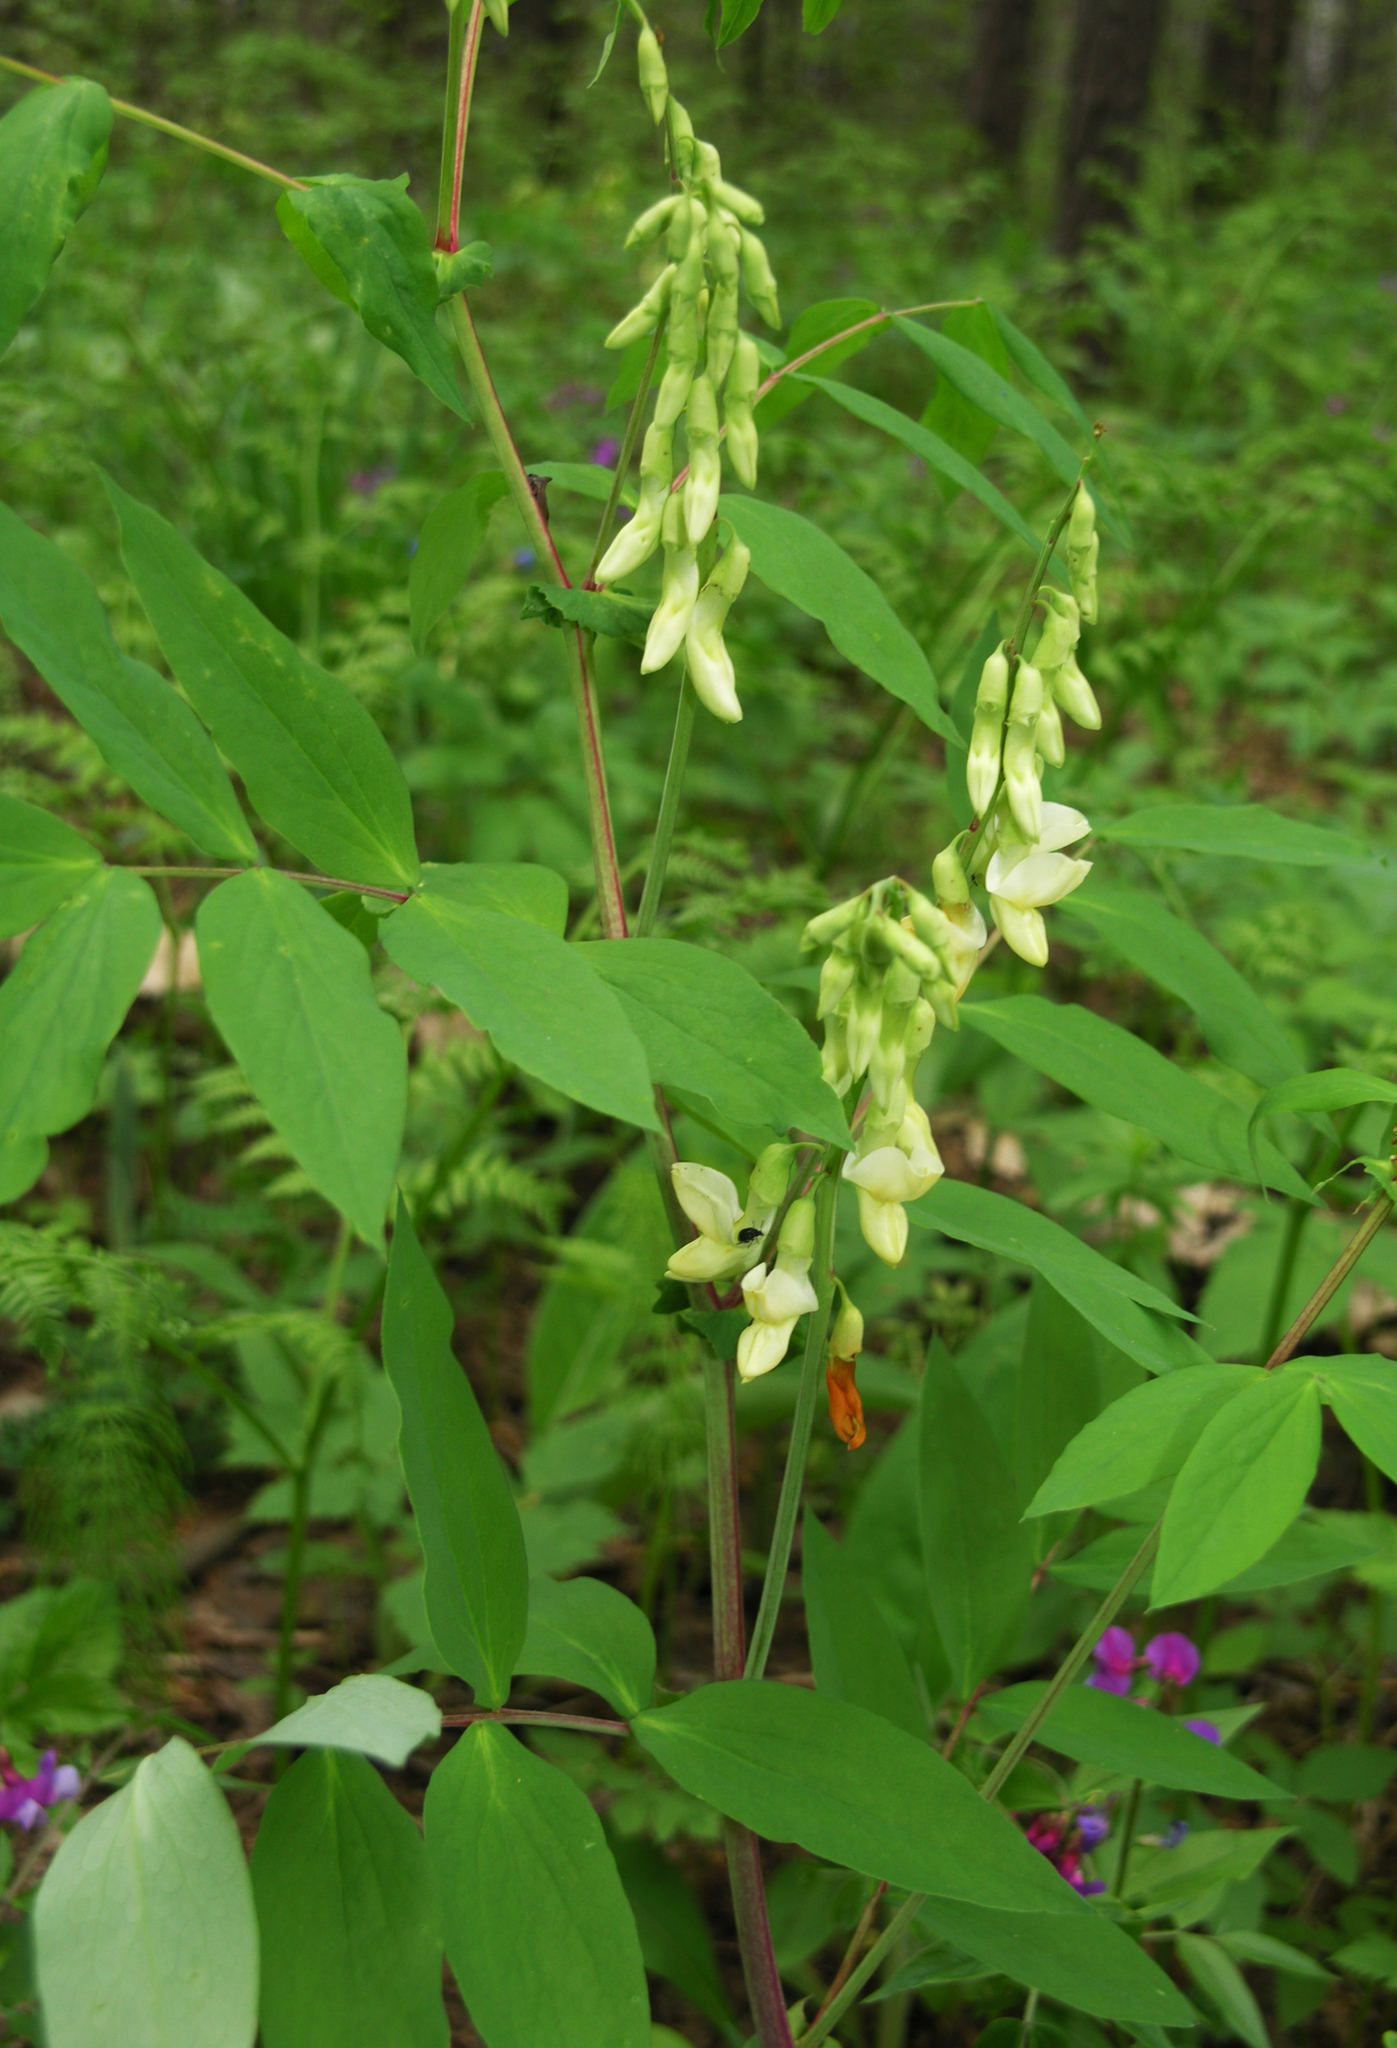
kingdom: Plantae
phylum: Tracheophyta
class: Magnoliopsida
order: Fabales
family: Fabaceae
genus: Lathyrus
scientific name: Lathyrus gmelinii
